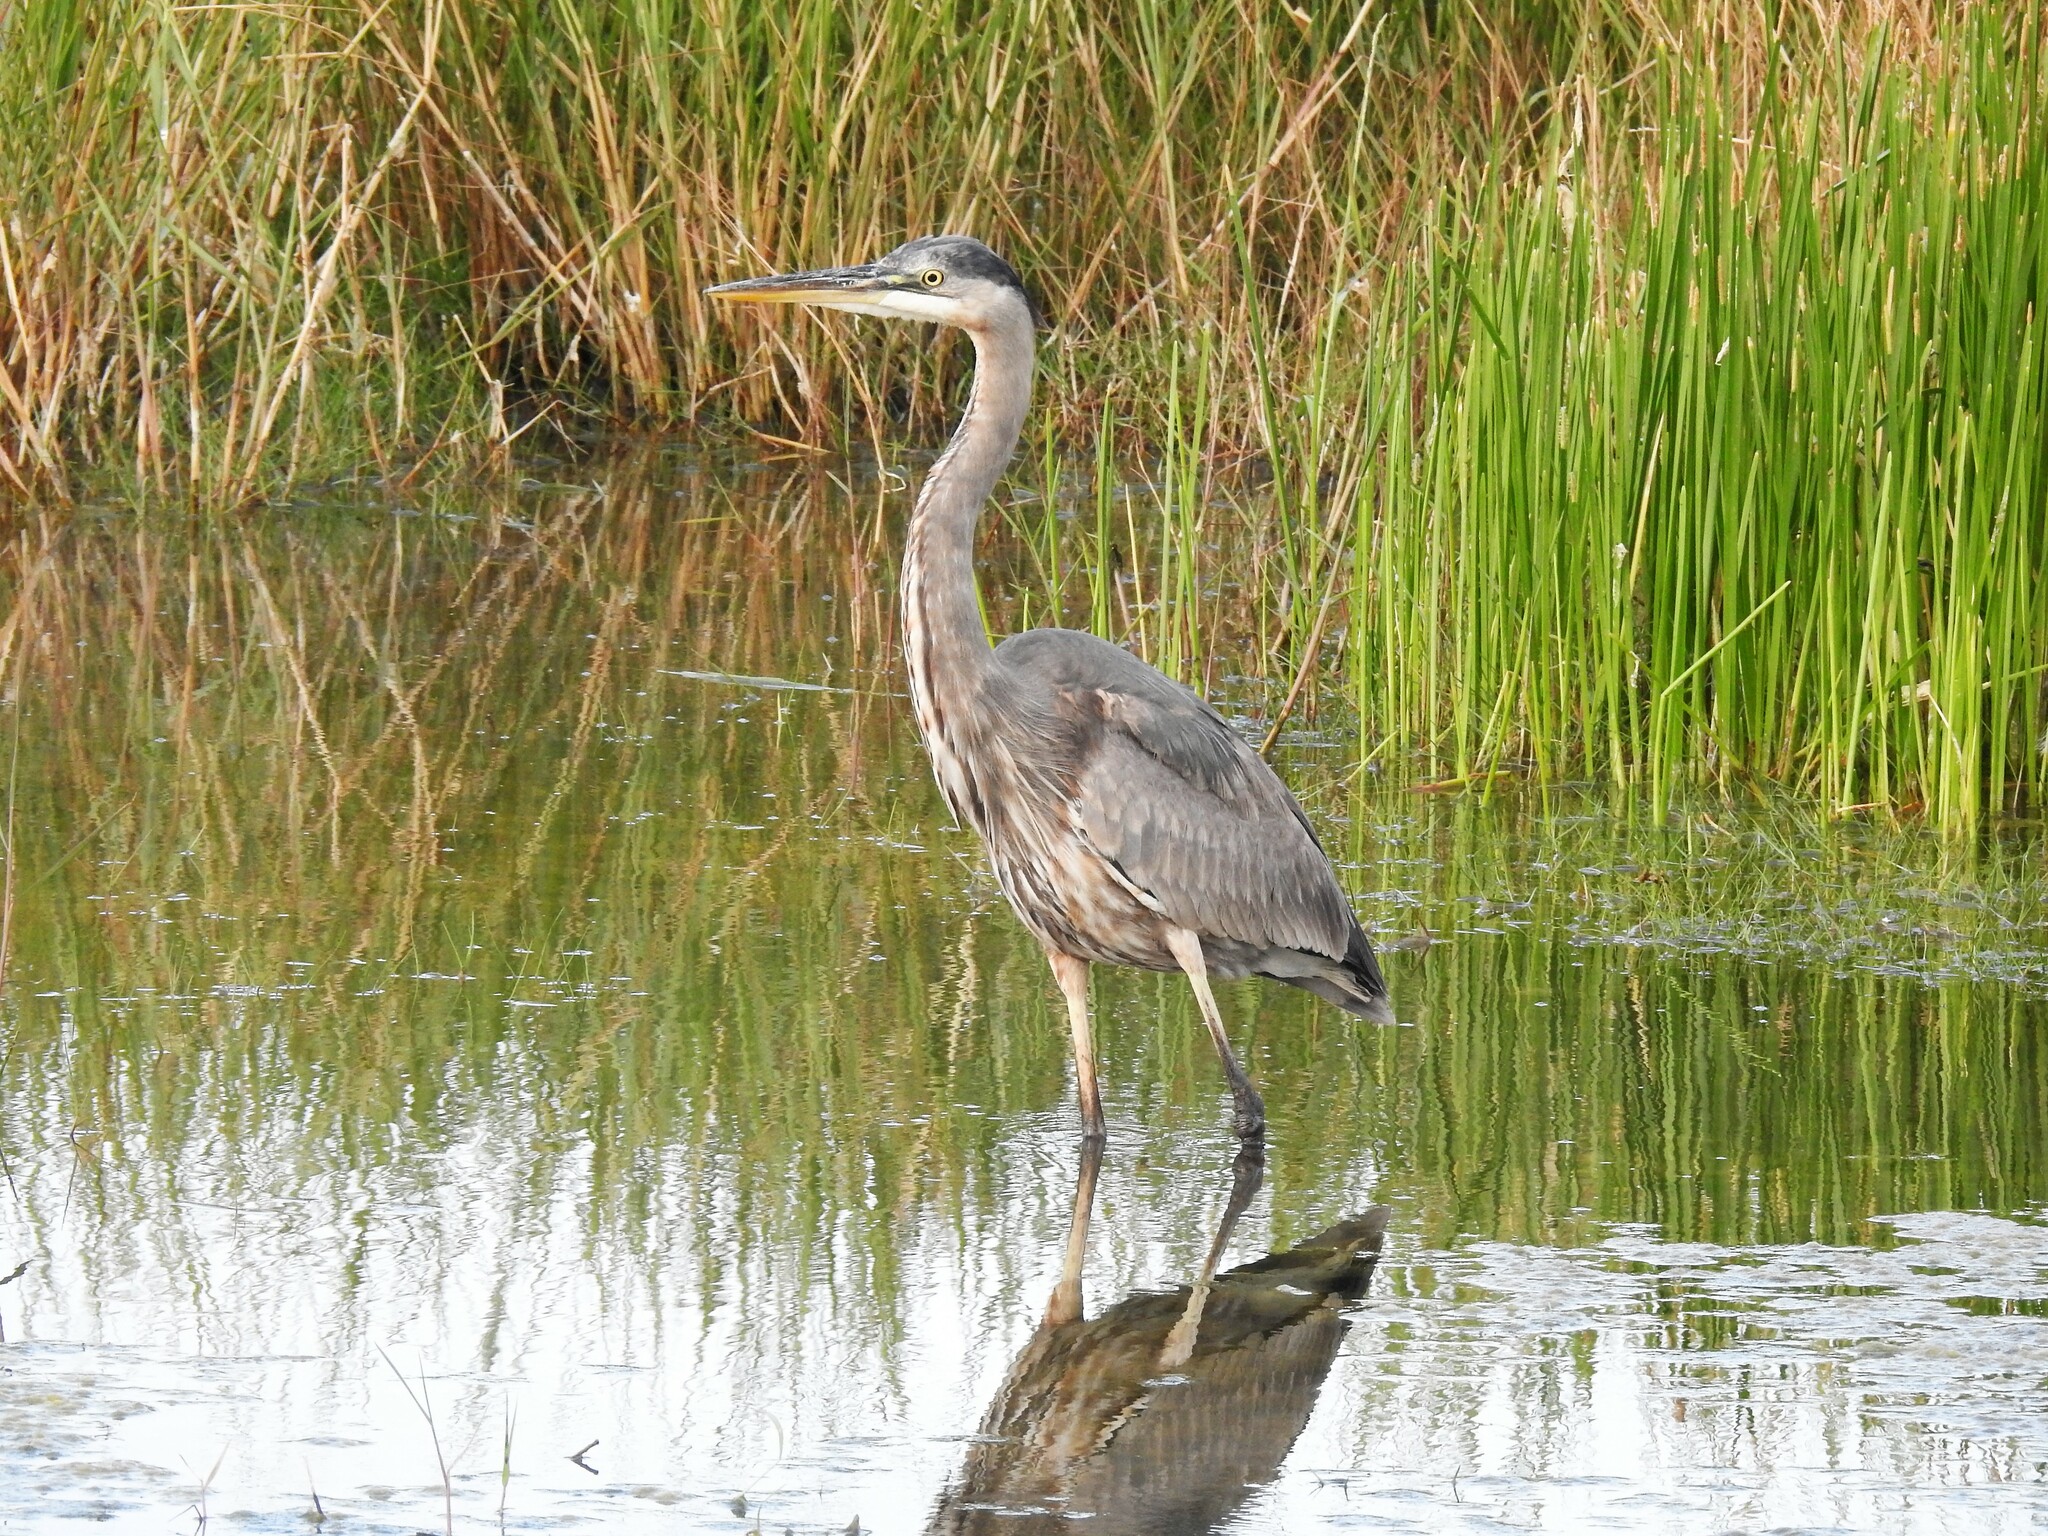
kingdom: Animalia
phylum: Chordata
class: Aves
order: Pelecaniformes
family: Ardeidae
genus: Ardea
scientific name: Ardea herodias
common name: Great blue heron
